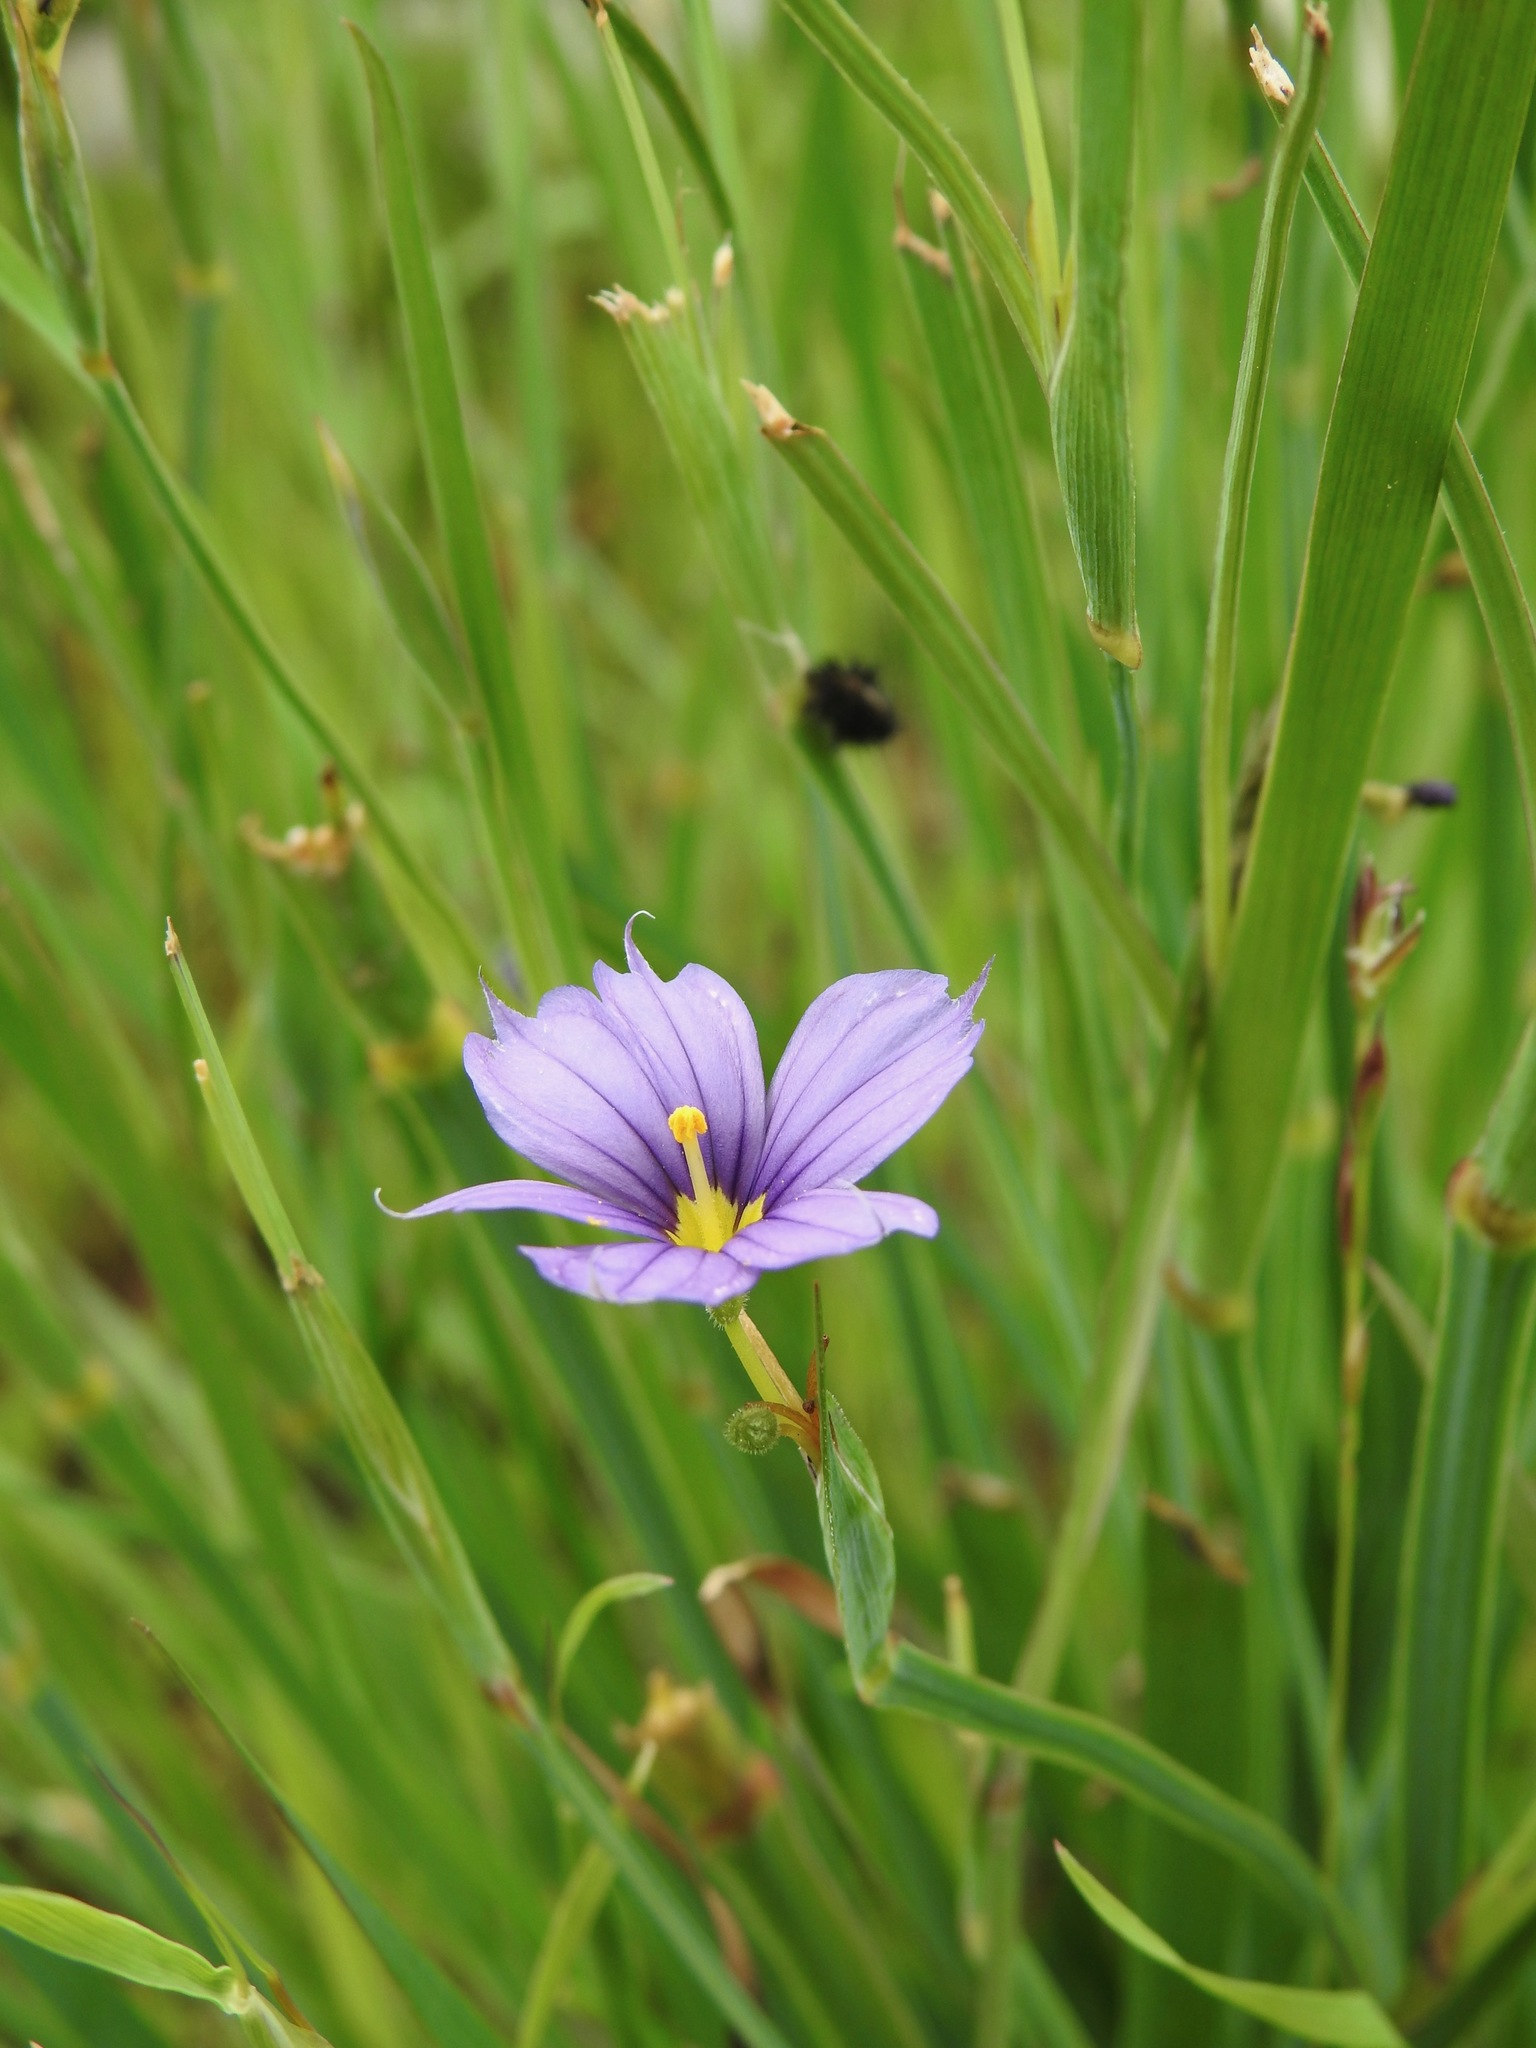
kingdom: Plantae
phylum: Tracheophyta
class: Liliopsida
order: Asparagales
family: Iridaceae
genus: Sisyrinchium
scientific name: Sisyrinchium bellum
